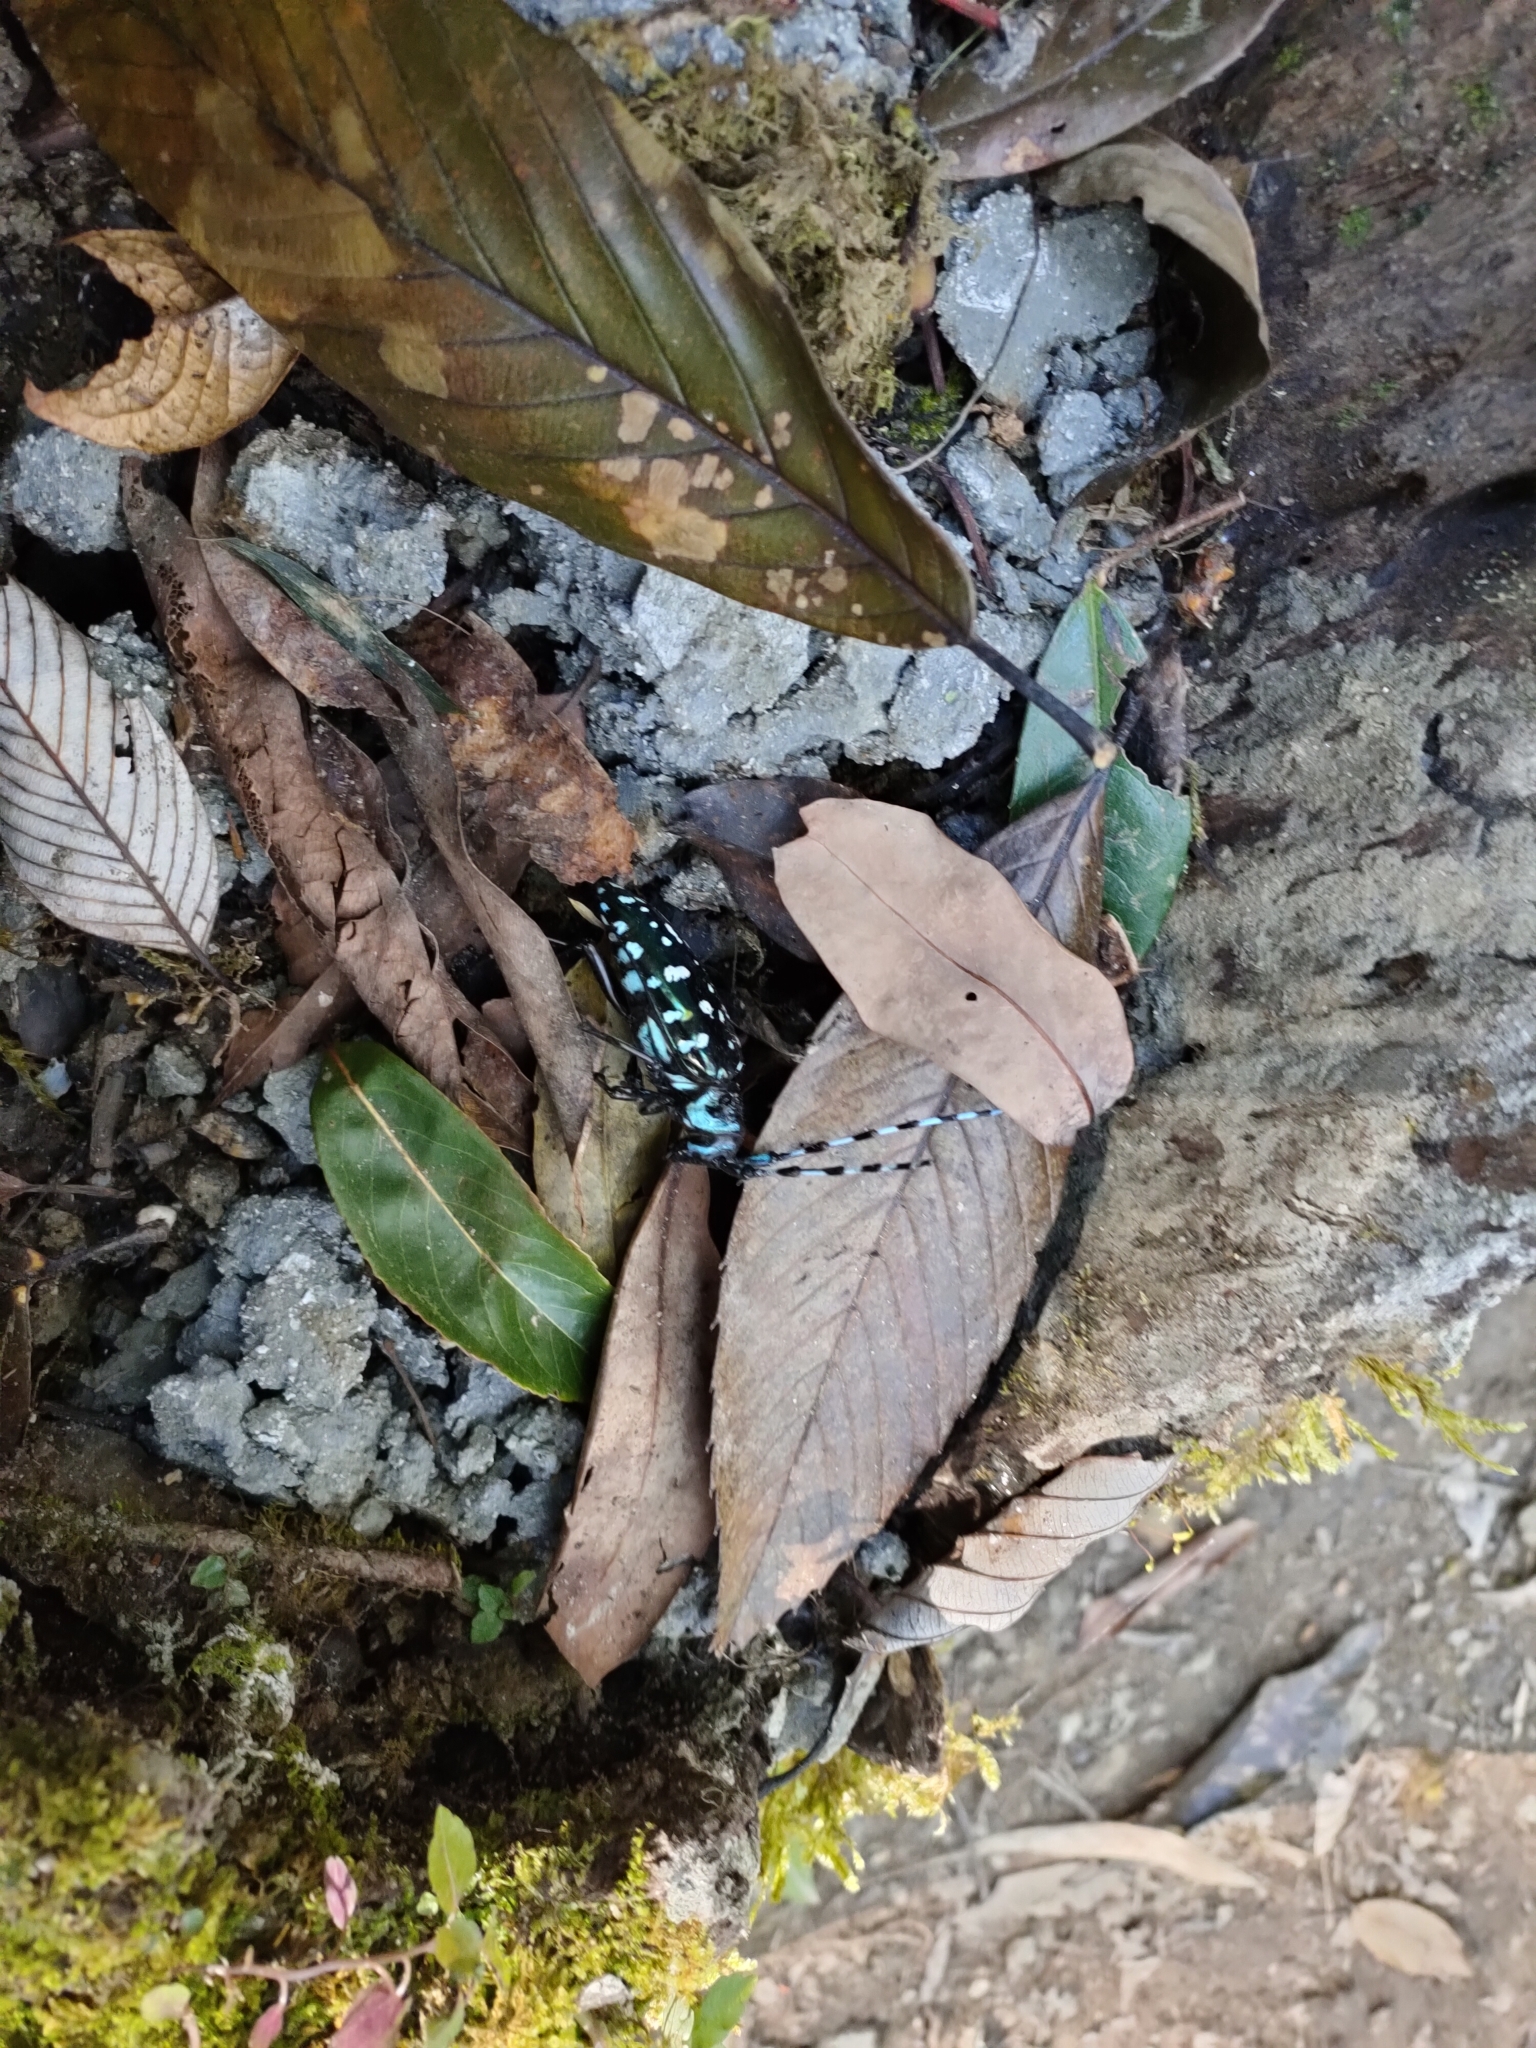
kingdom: Animalia
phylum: Arthropoda
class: Insecta
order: Coleoptera
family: Cerambycidae
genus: Anoplophora
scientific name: Anoplophora sollii
